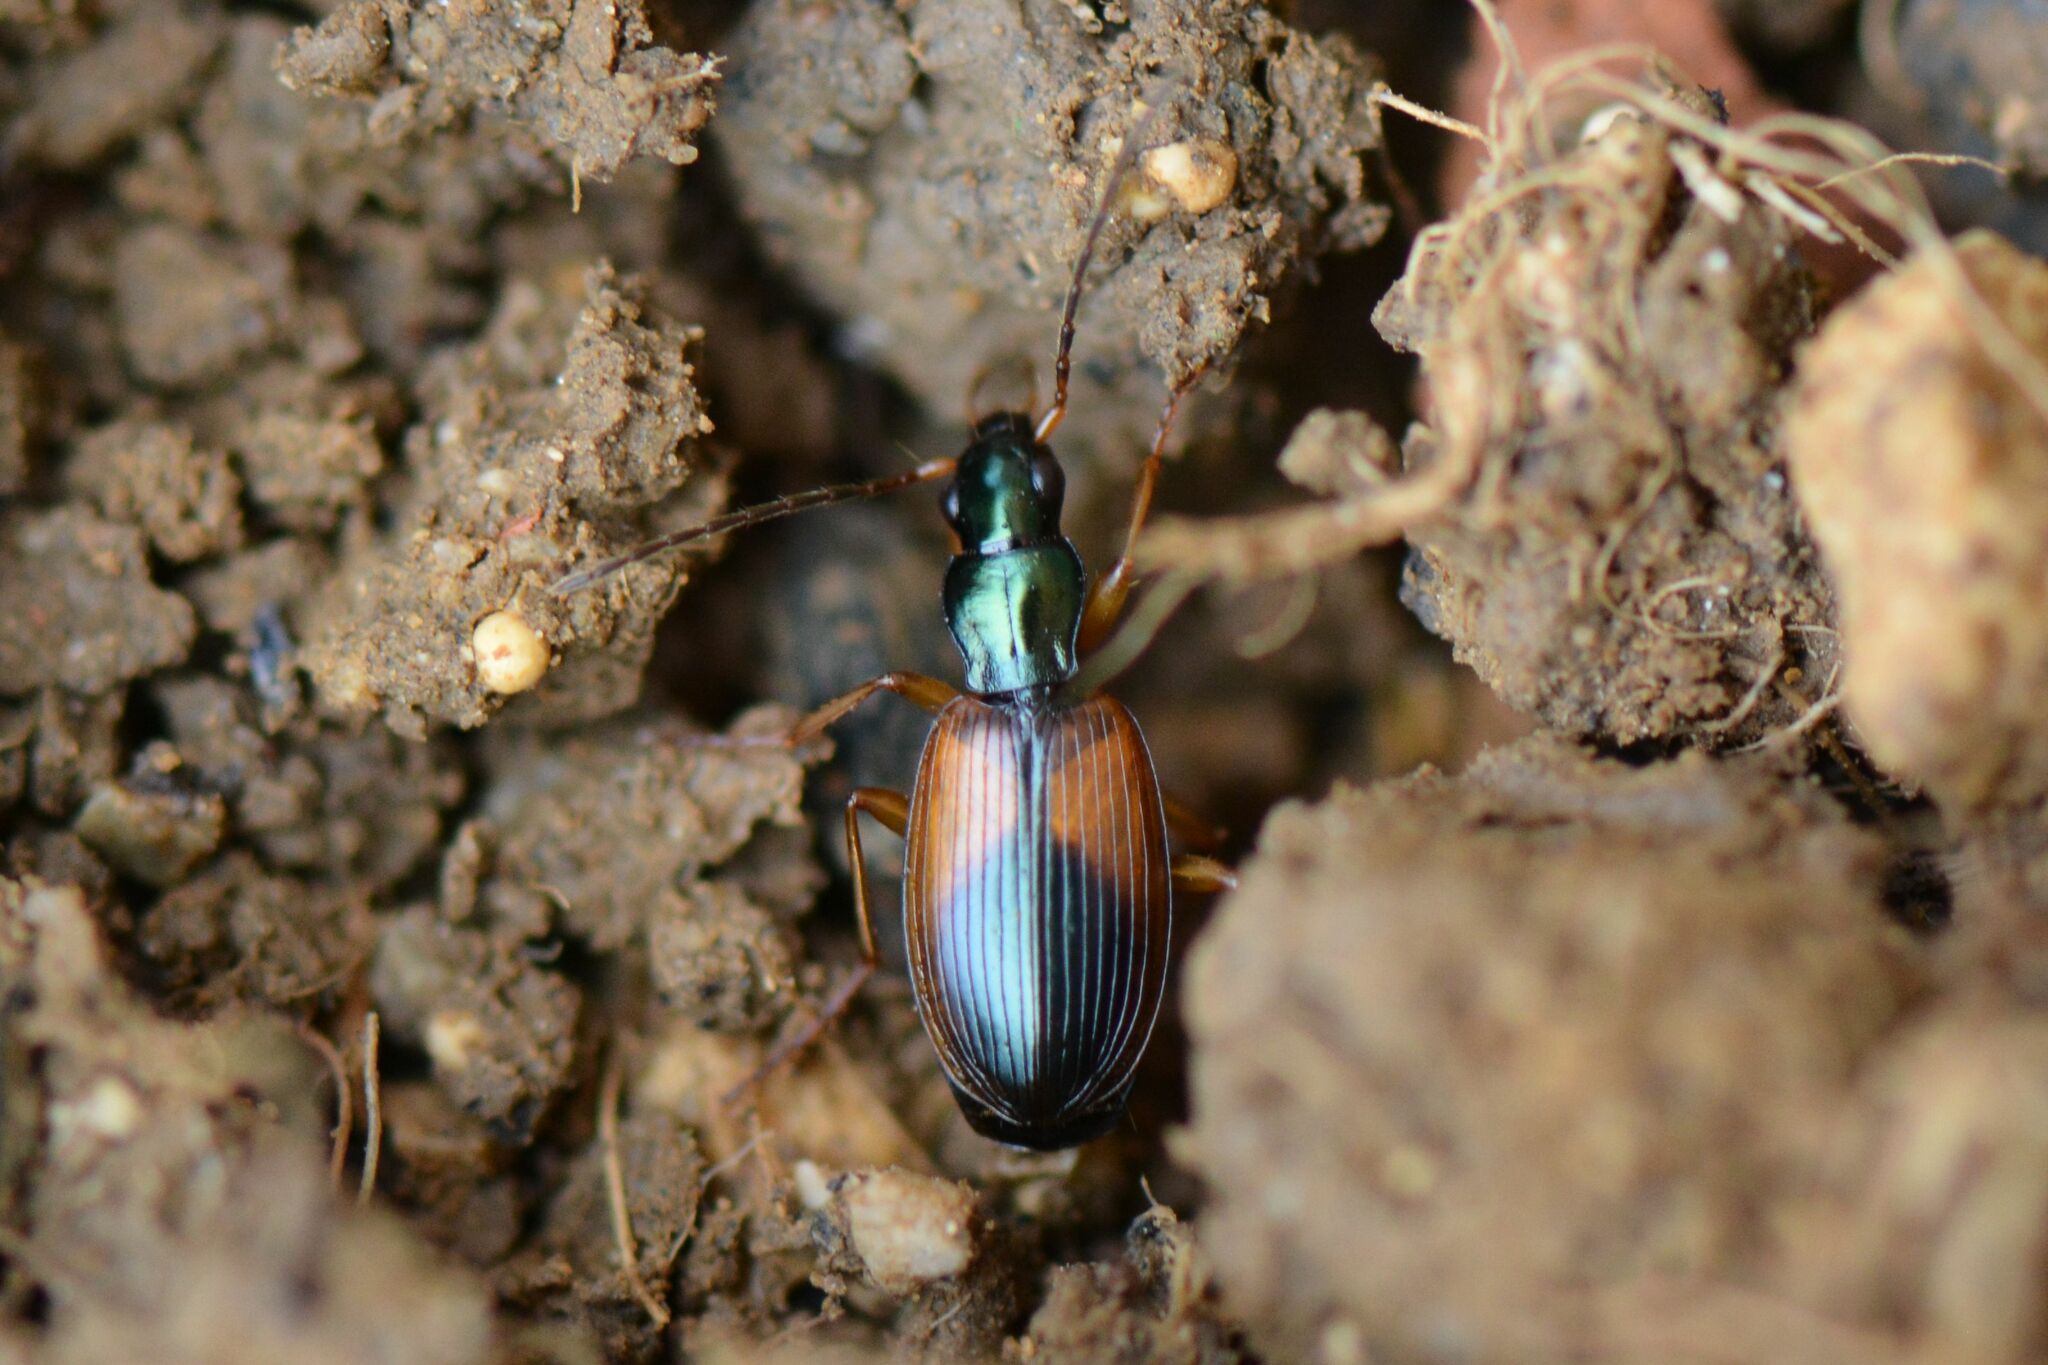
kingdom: Animalia
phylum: Arthropoda
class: Insecta
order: Coleoptera
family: Carabidae
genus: Anchomenus
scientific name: Anchomenus dorsalis
